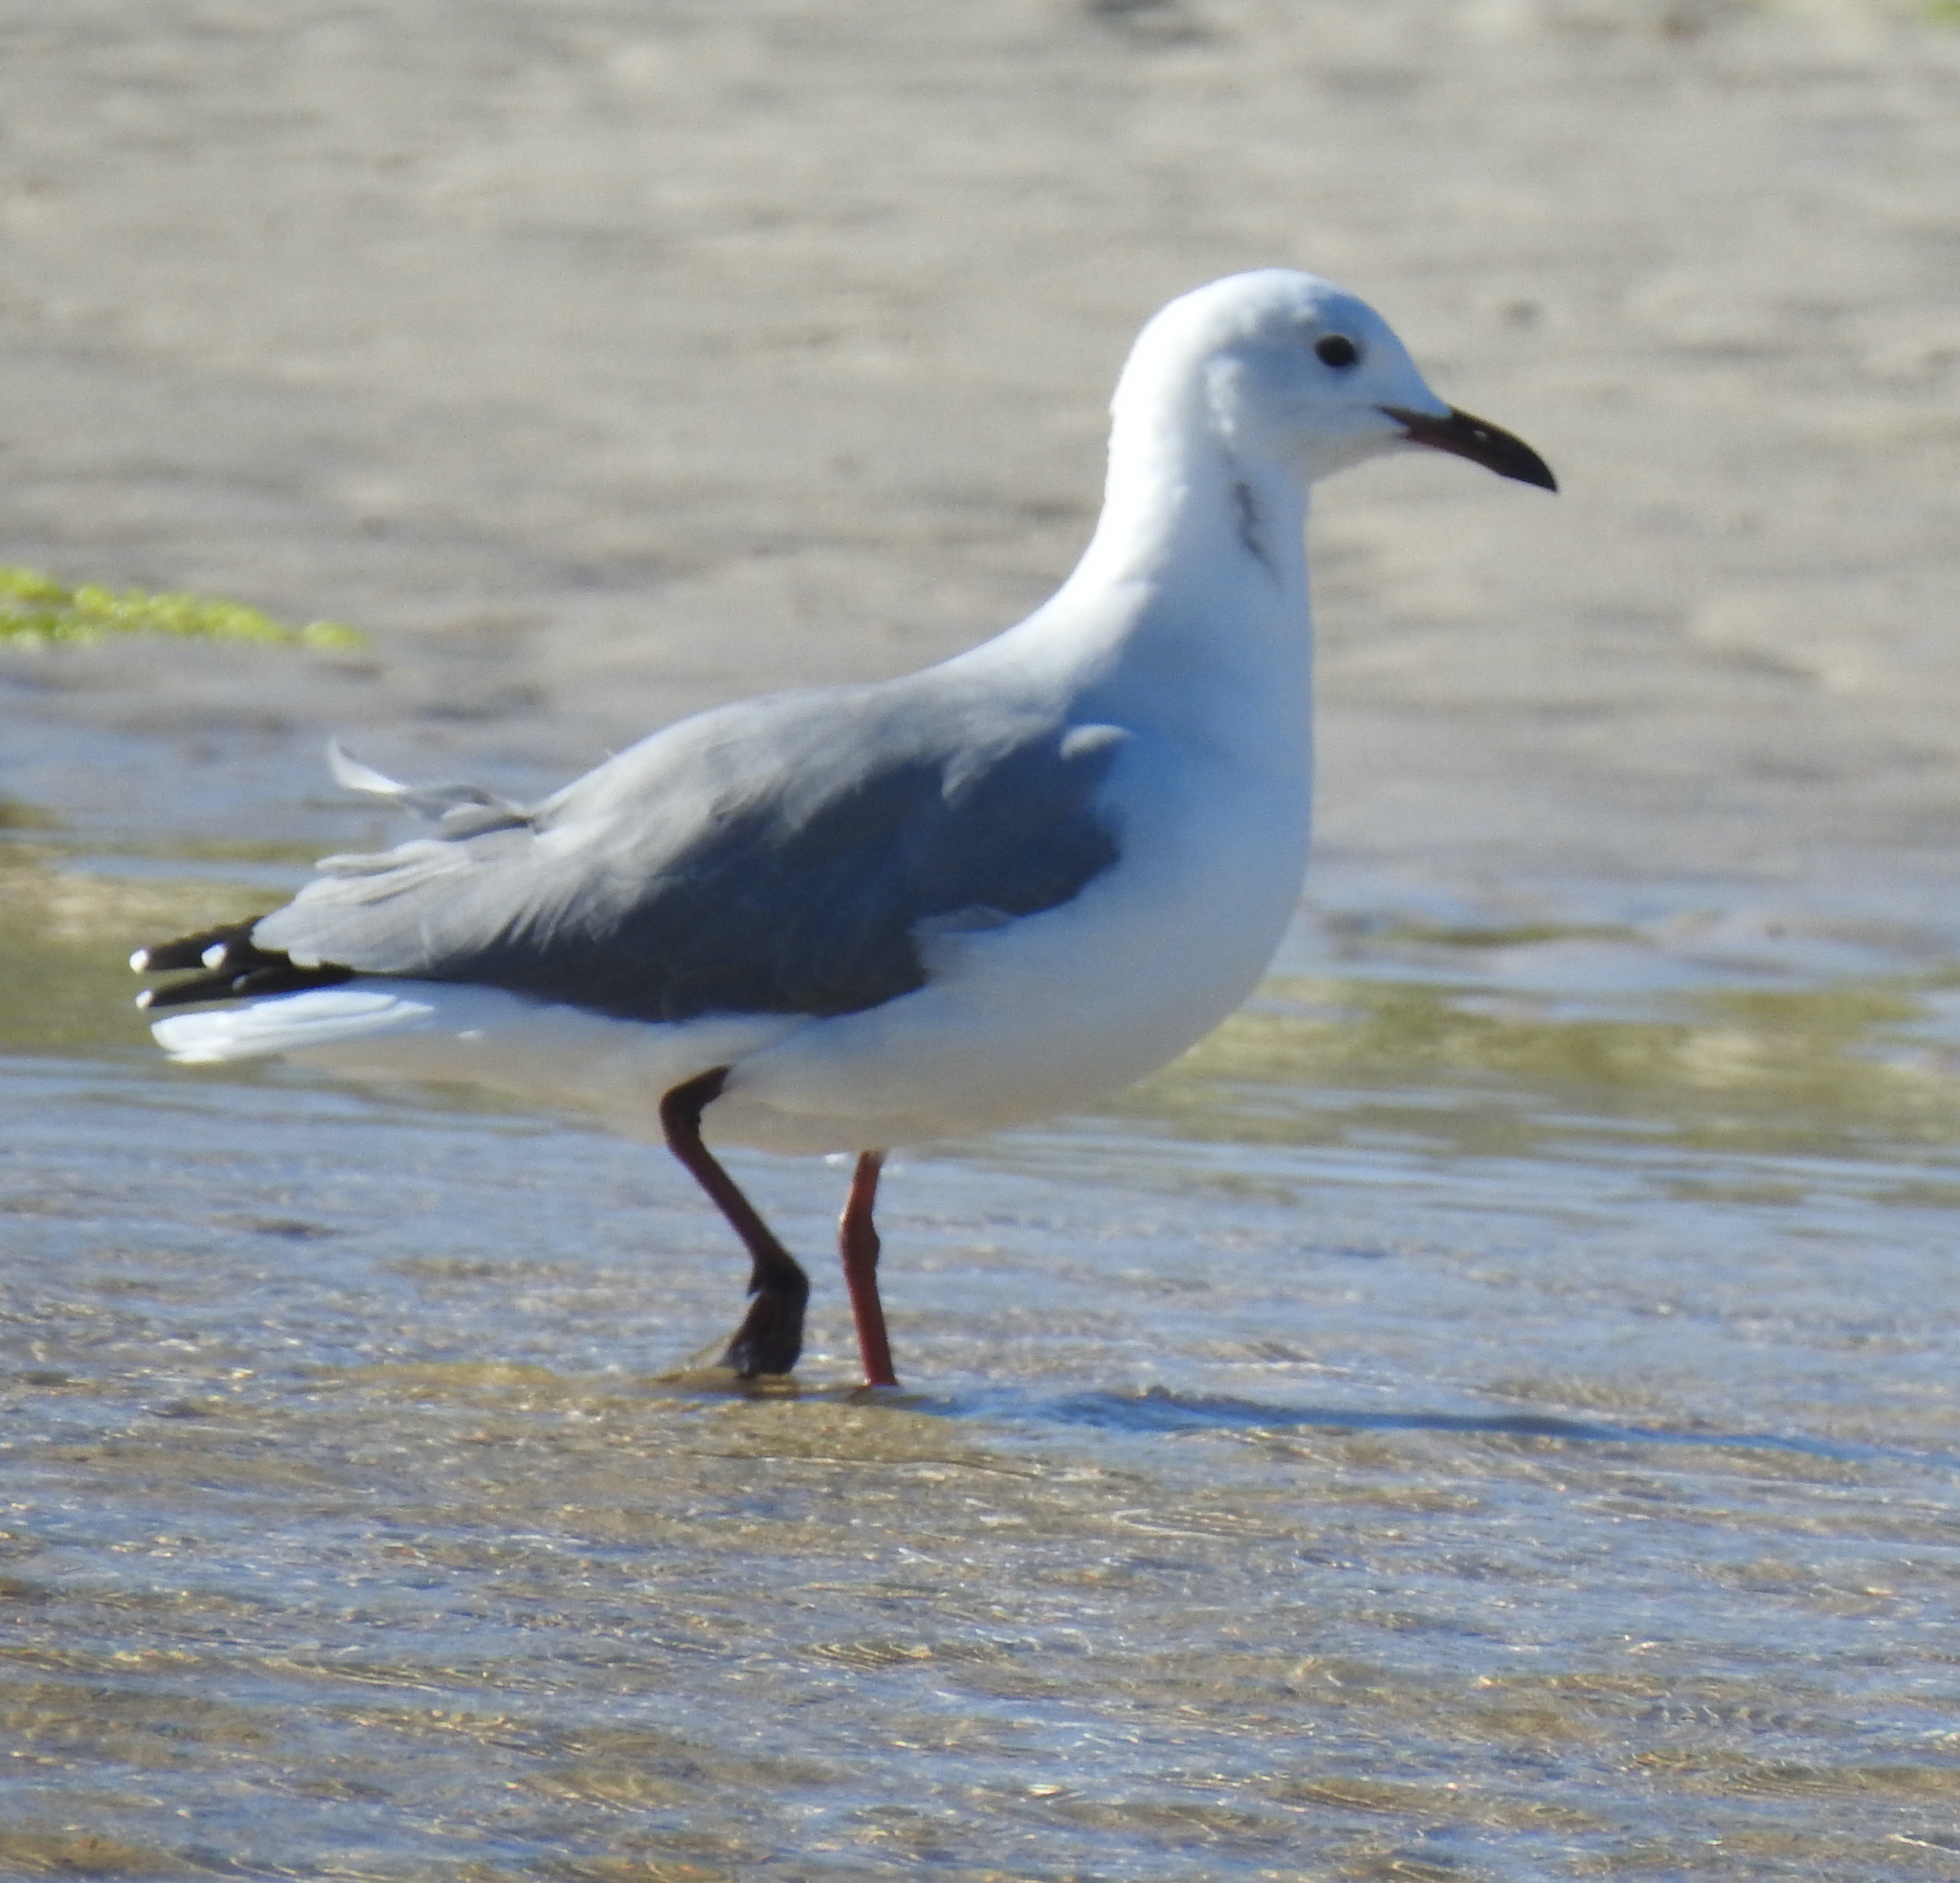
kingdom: Animalia
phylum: Chordata
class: Aves
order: Charadriiformes
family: Laridae
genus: Chroicocephalus
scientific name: Chroicocephalus hartlaubii
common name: Hartlaub's gull
